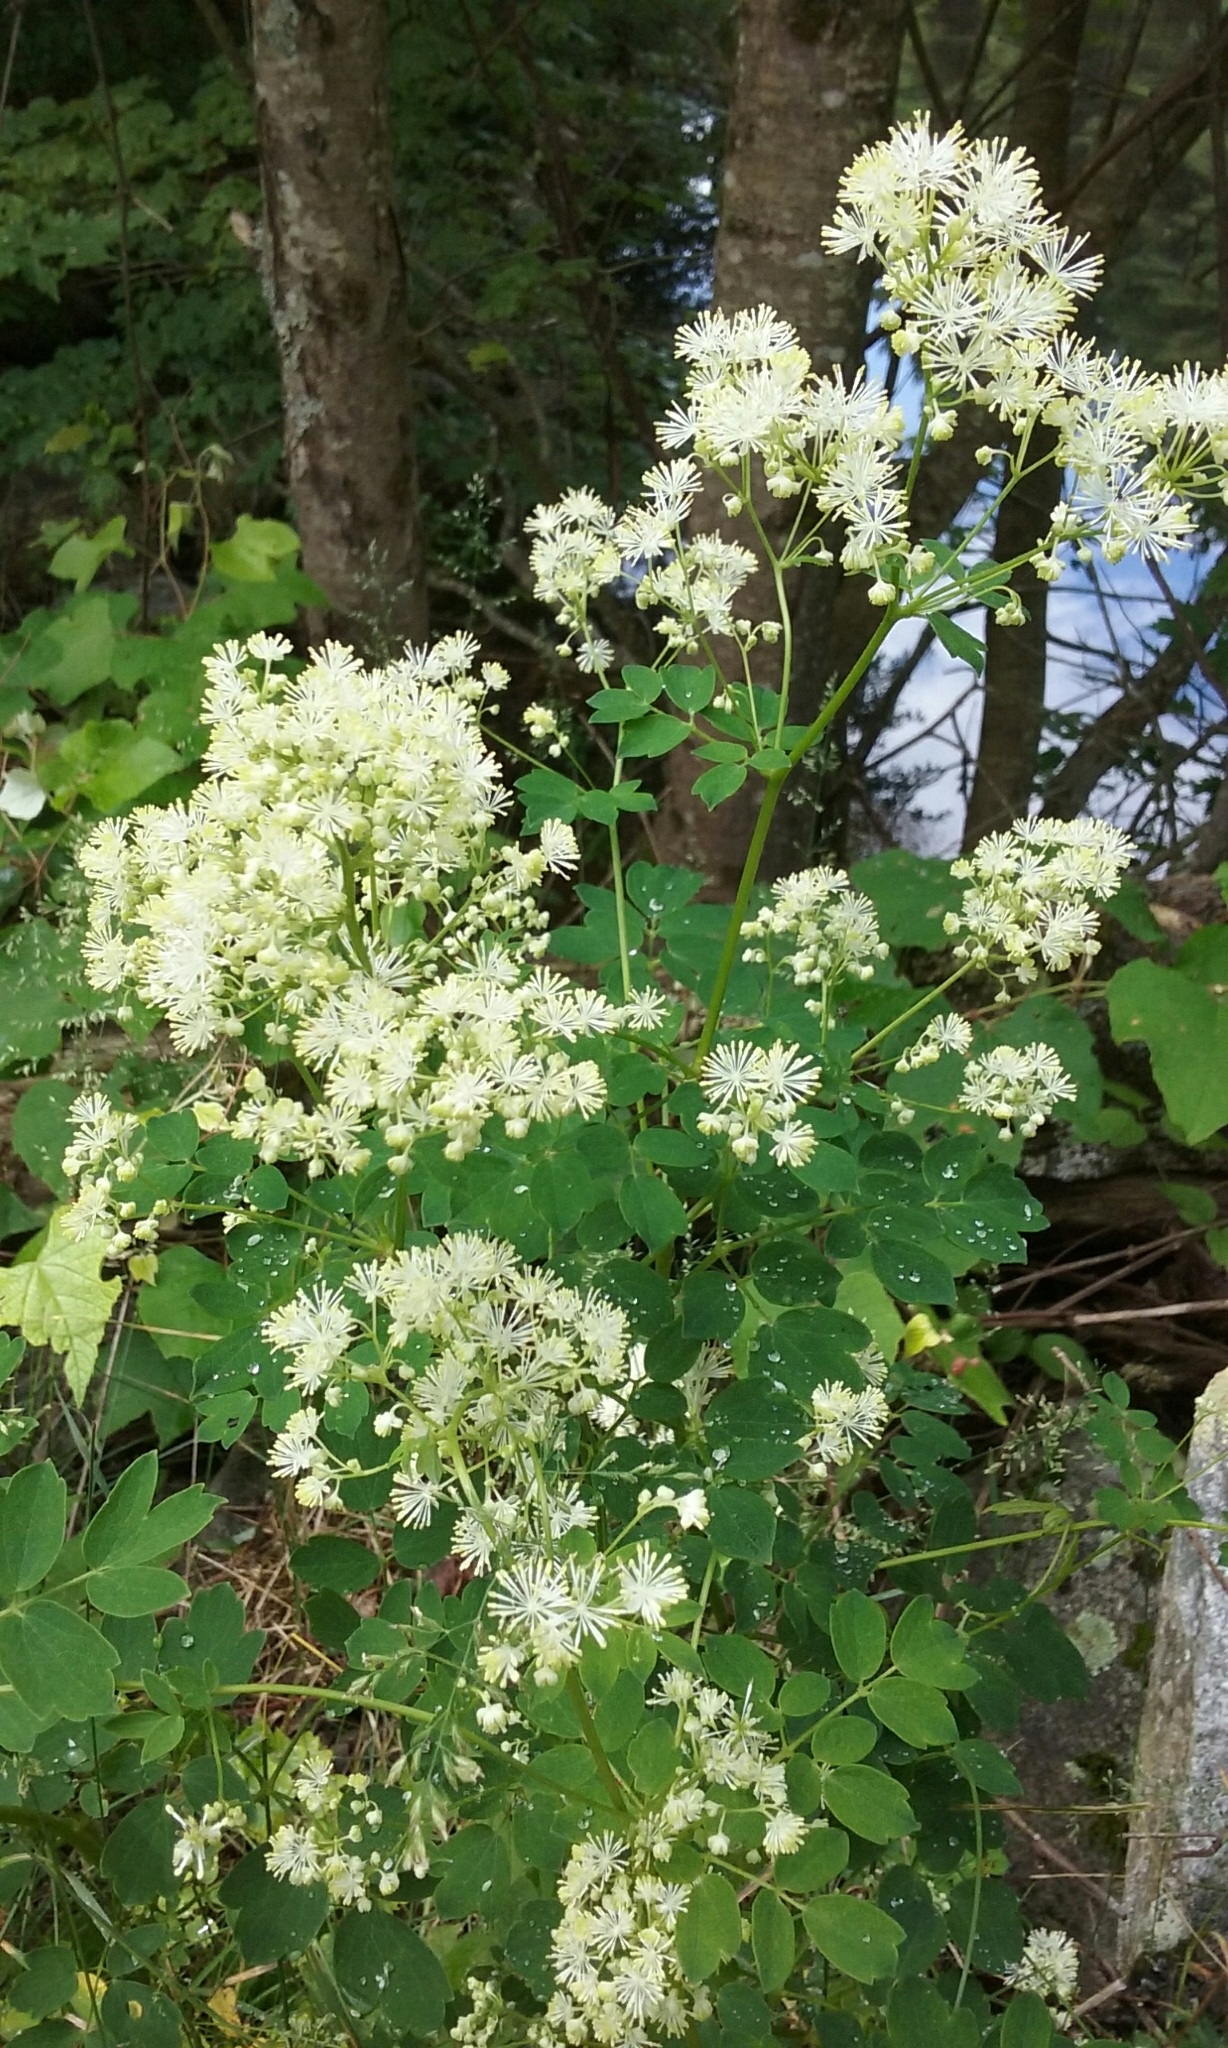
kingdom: Plantae
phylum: Tracheophyta
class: Magnoliopsida
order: Ranunculales
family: Ranunculaceae
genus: Thalictrum
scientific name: Thalictrum pubescens
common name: King-of-the-meadow
